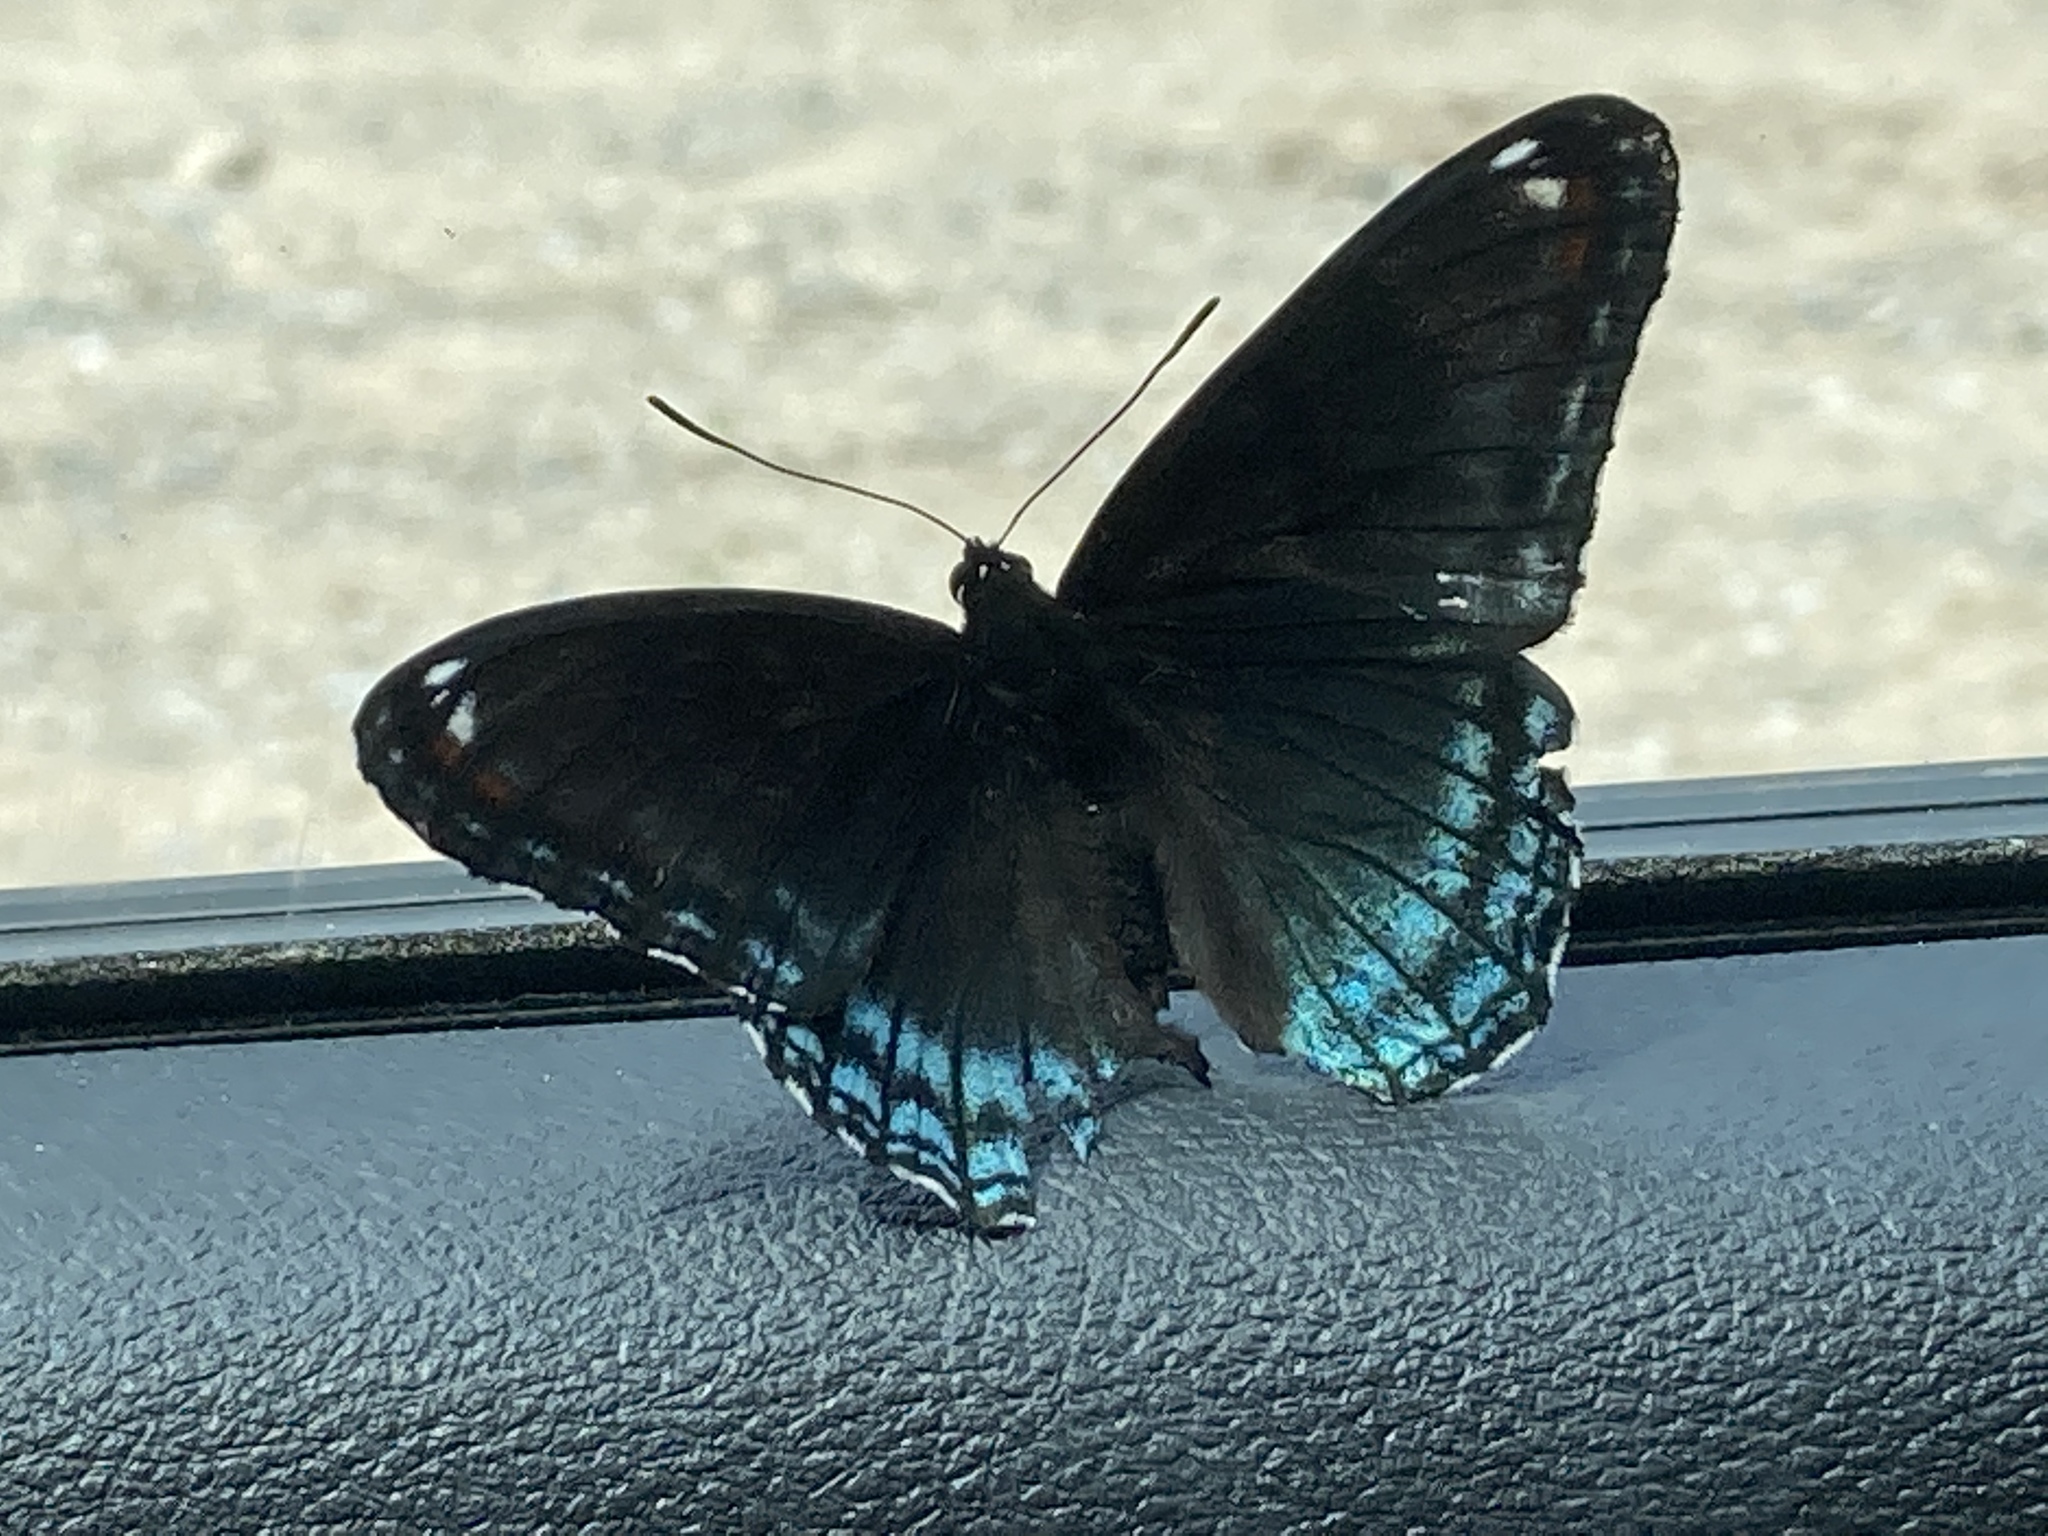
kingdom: Animalia
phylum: Arthropoda
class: Insecta
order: Lepidoptera
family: Nymphalidae
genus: Limenitis
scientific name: Limenitis arthemis
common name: Red-spotted admiral
